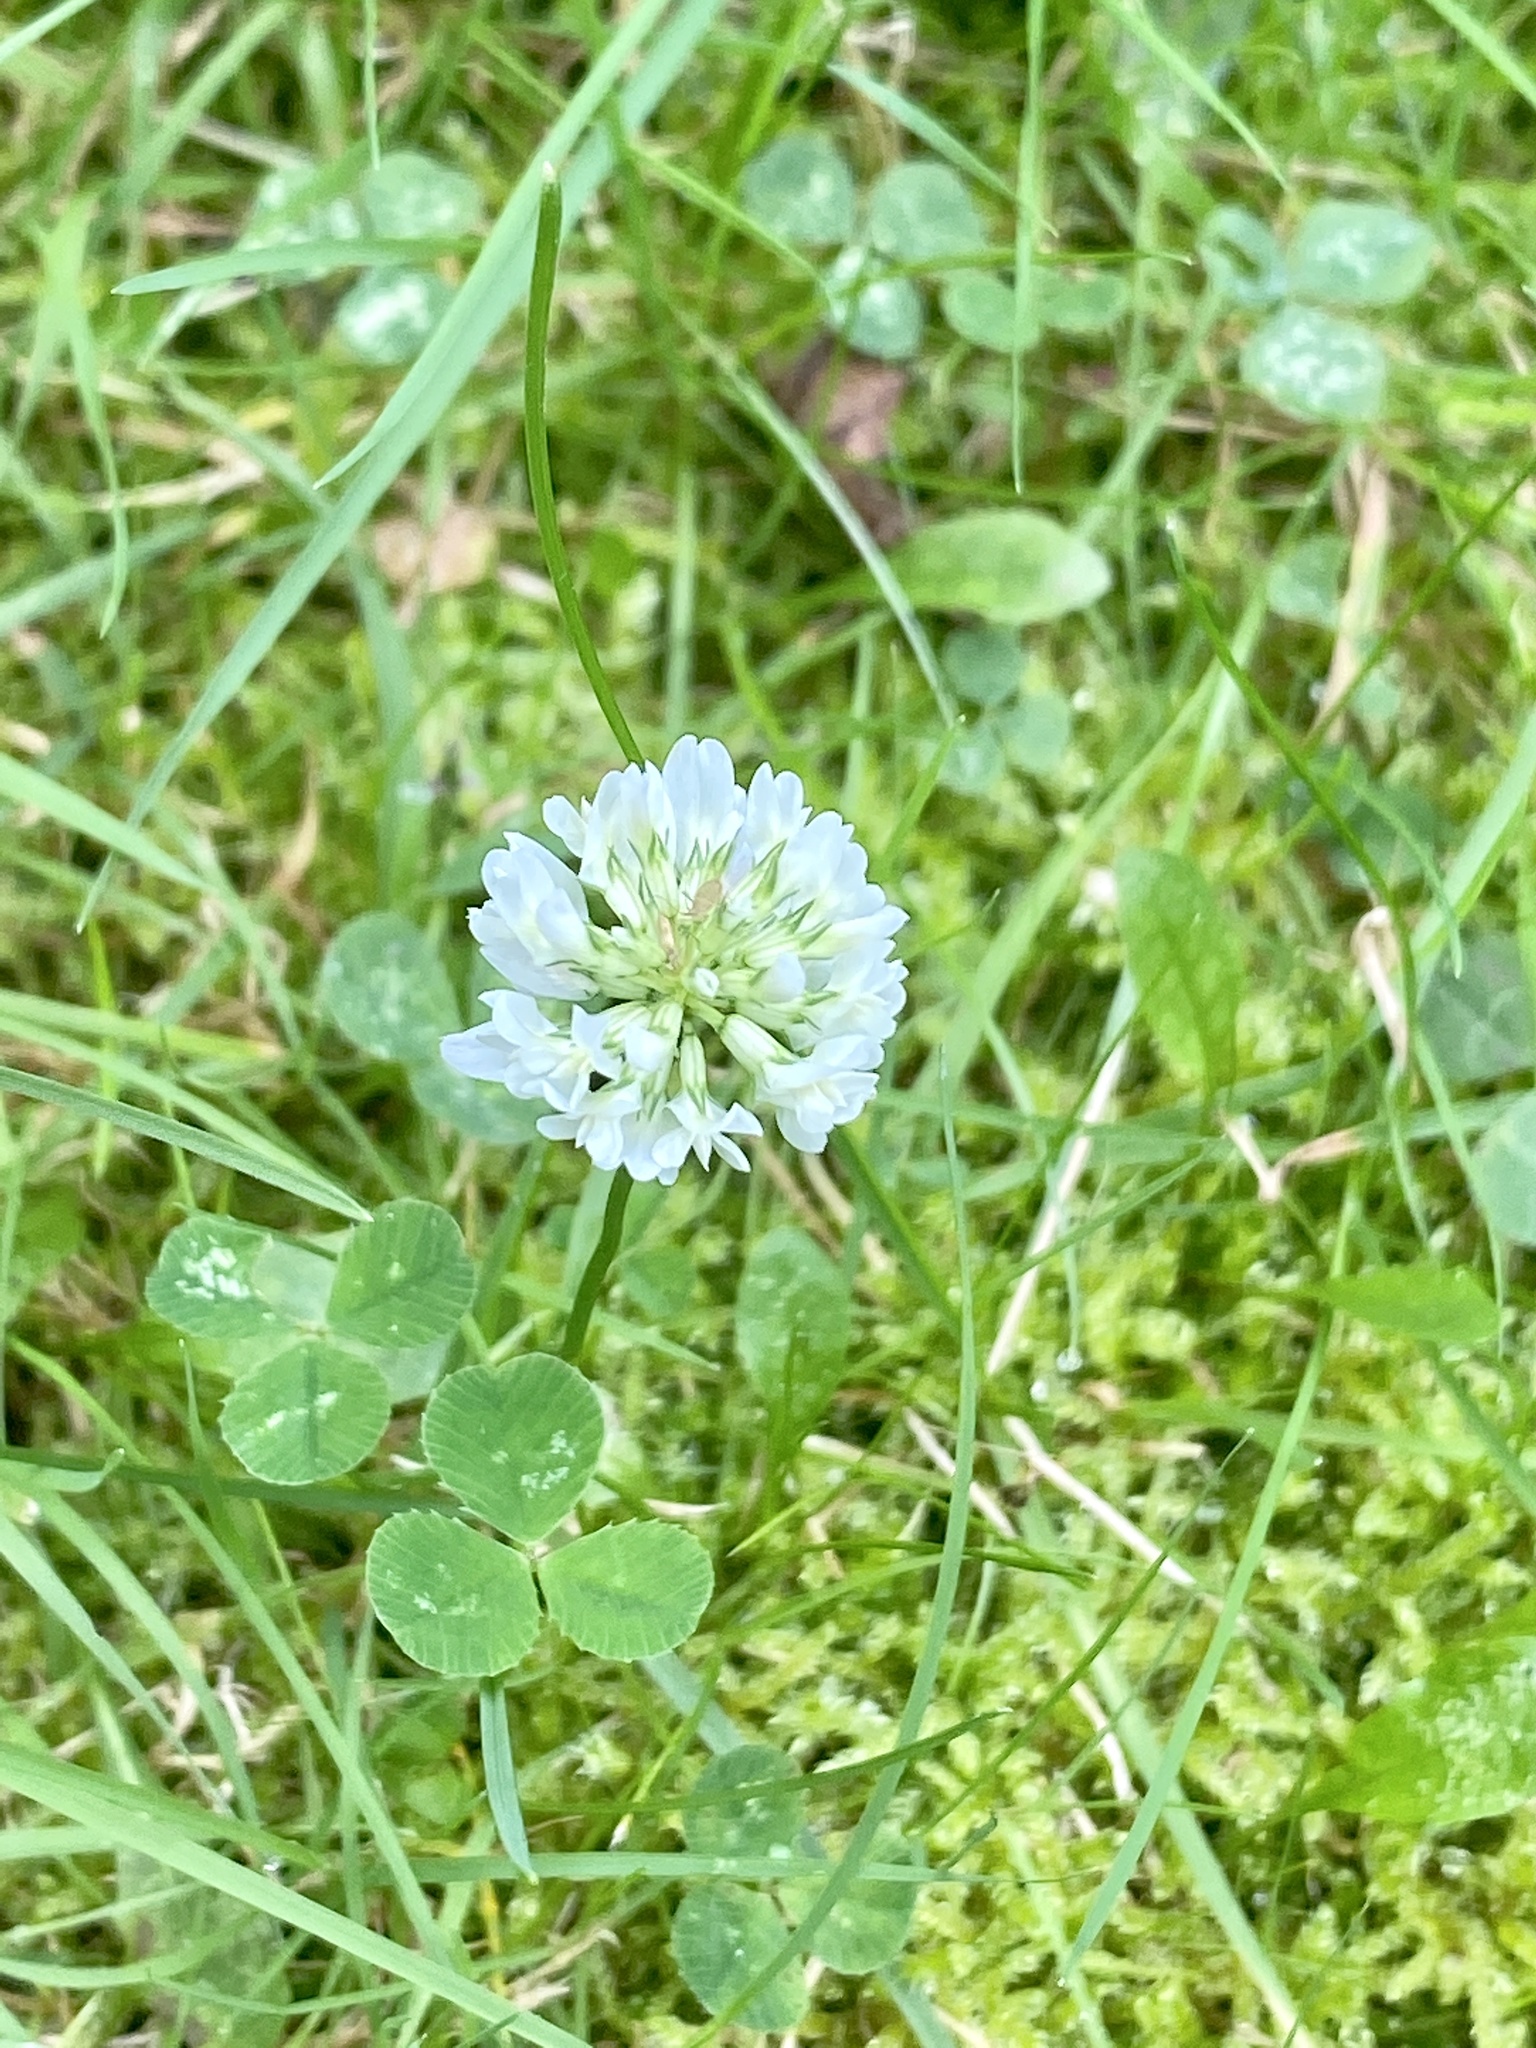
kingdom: Plantae
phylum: Tracheophyta
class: Magnoliopsida
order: Fabales
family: Fabaceae
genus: Trifolium
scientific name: Trifolium repens
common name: White clover
